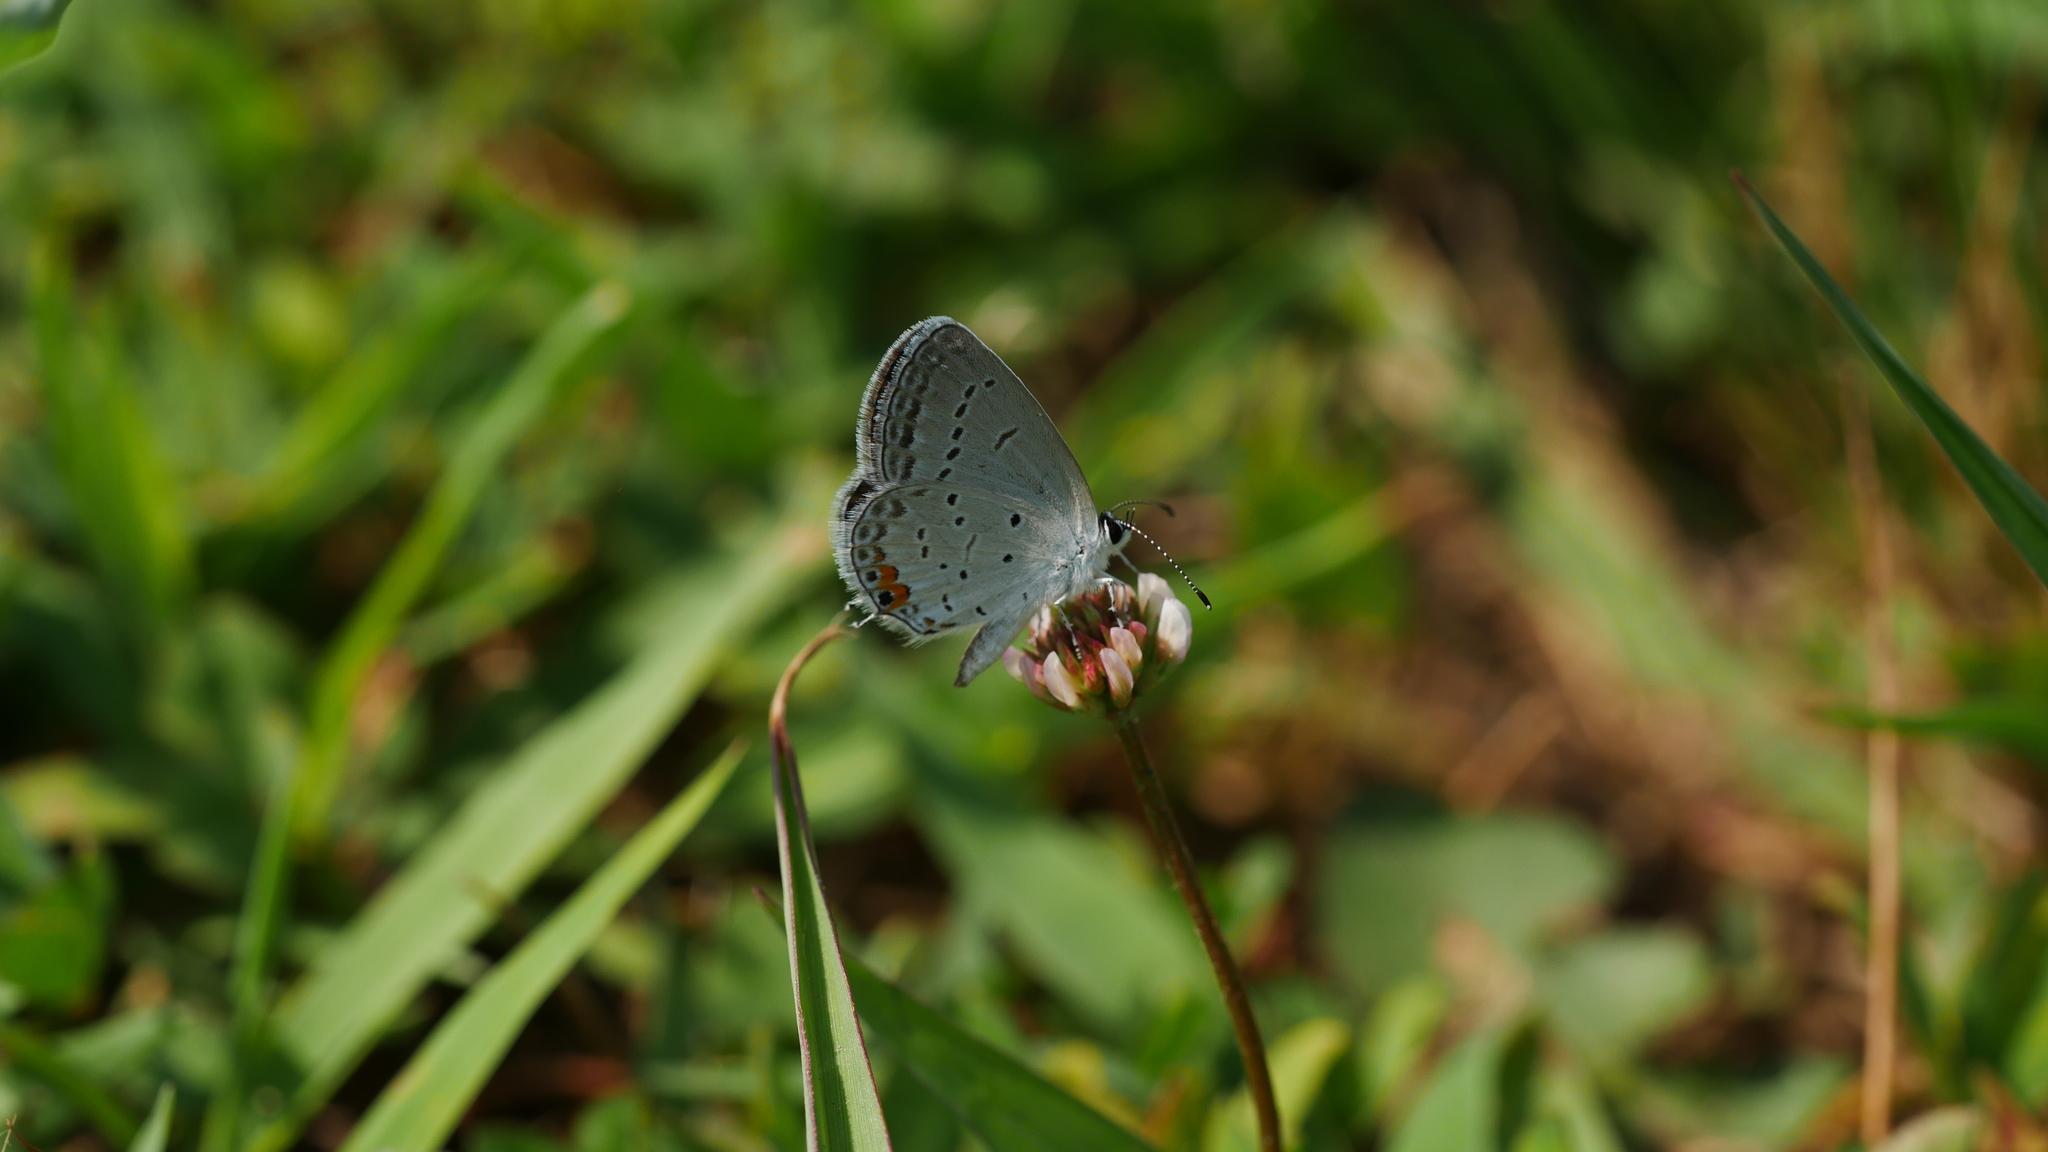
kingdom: Animalia
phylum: Arthropoda
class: Insecta
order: Lepidoptera
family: Lycaenidae
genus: Elkalyce
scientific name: Elkalyce comyntas
